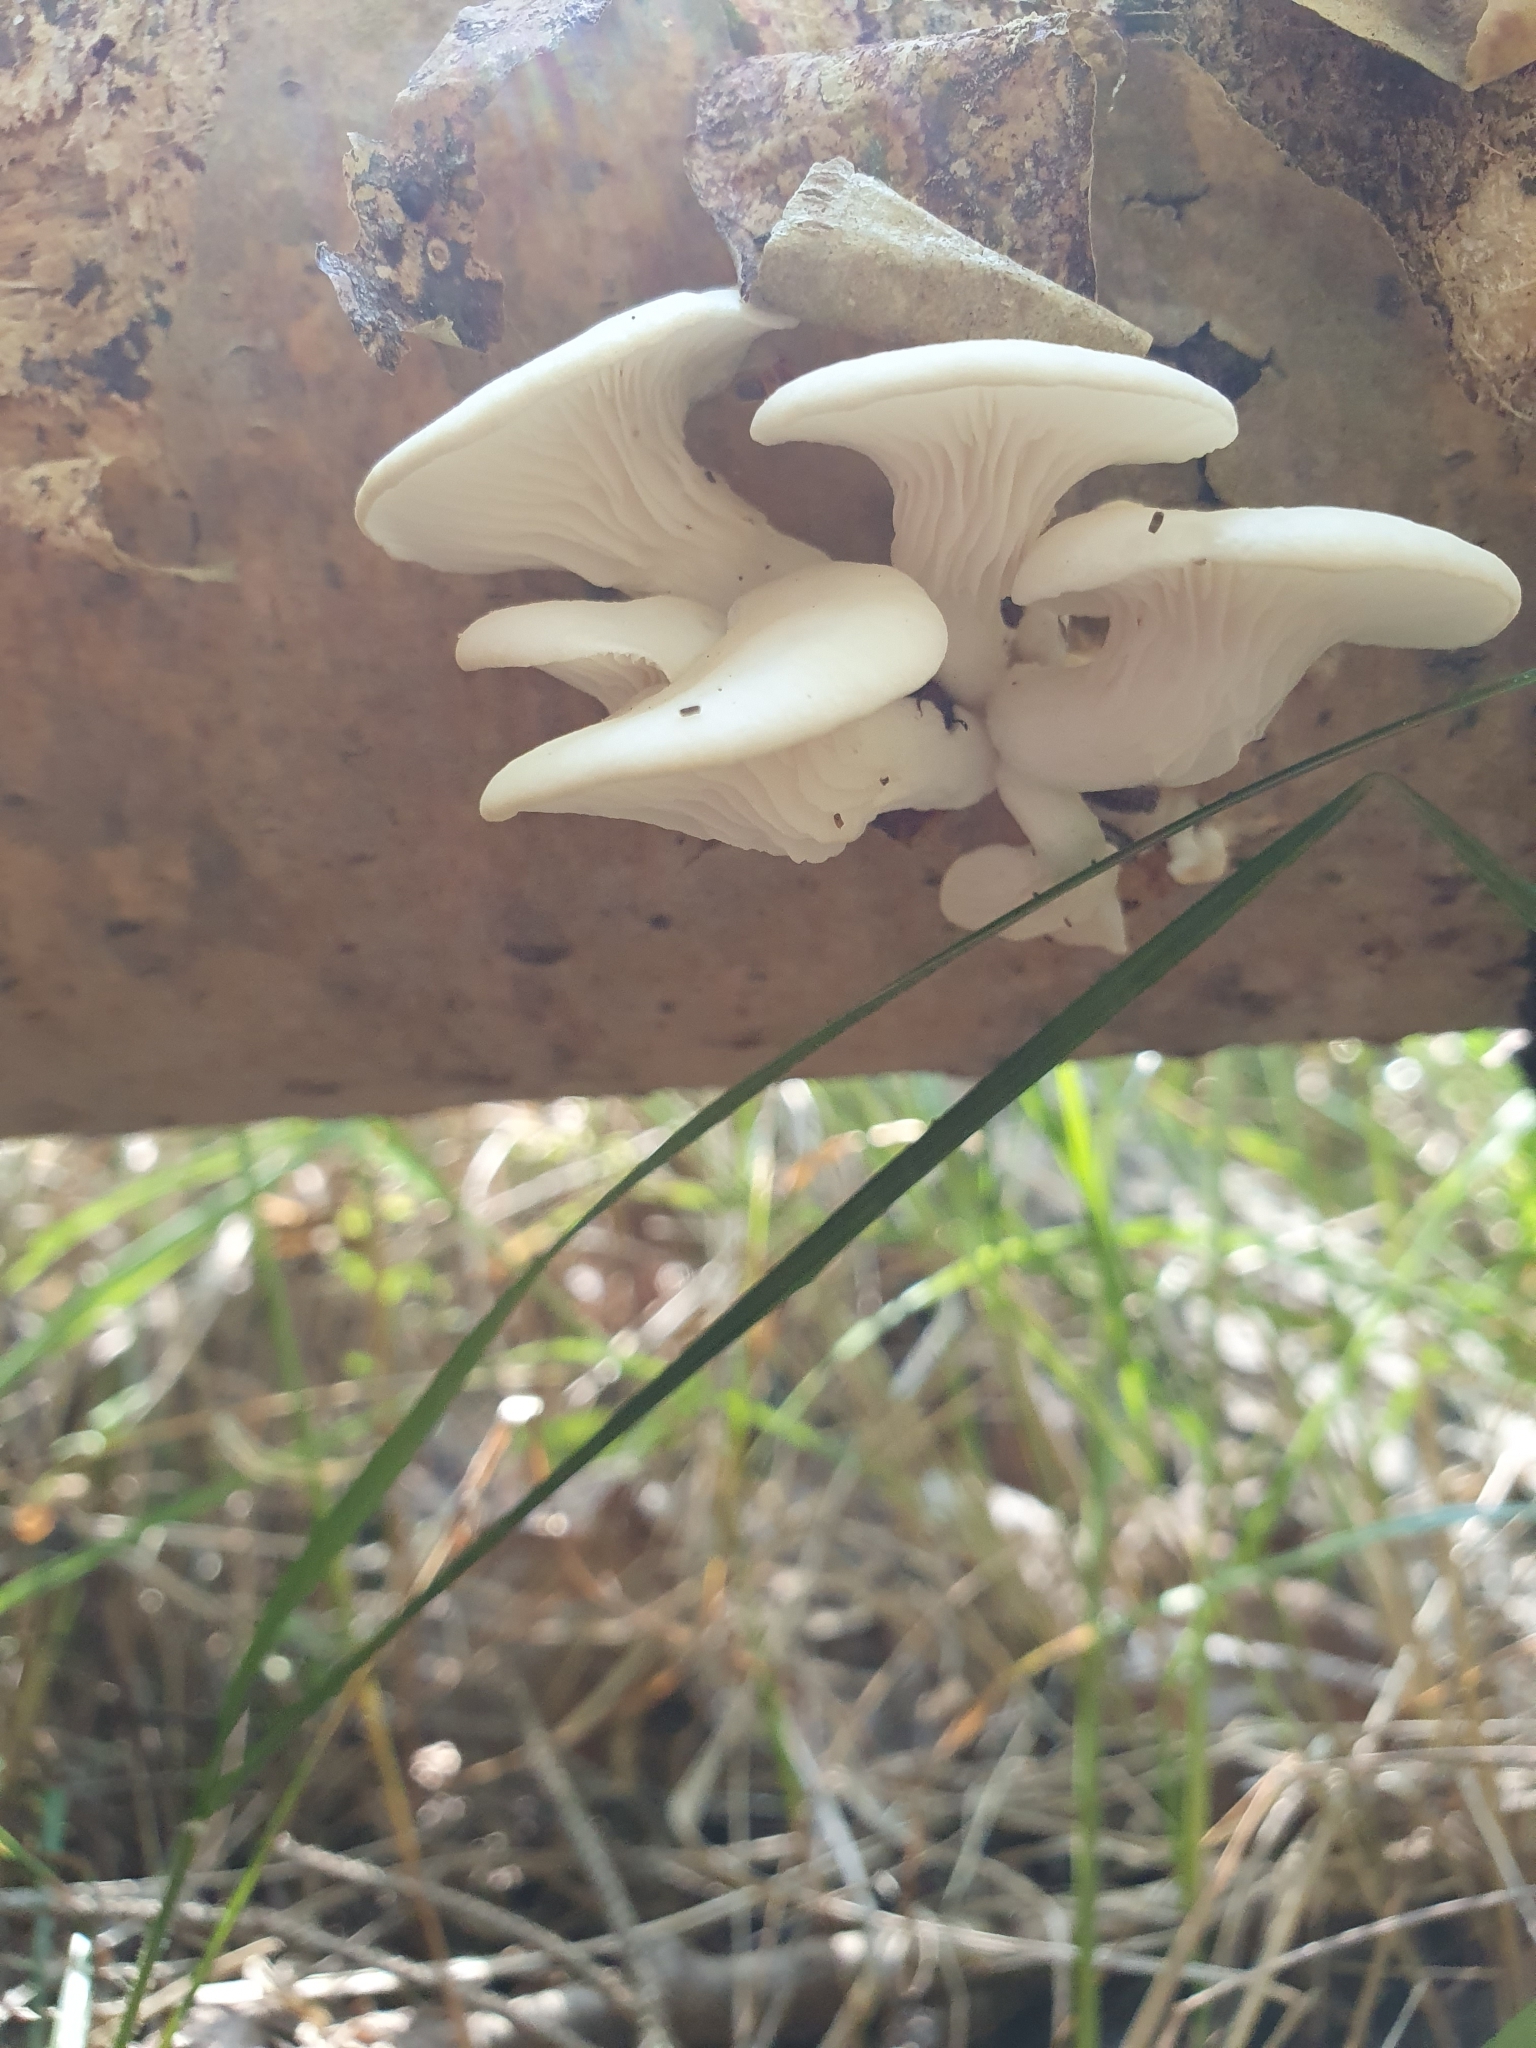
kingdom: Fungi
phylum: Basidiomycota
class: Agaricomycetes
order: Agaricales
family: Pleurotaceae
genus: Pleurotus
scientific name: Pleurotus pulmonarius
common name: Pale oyster
